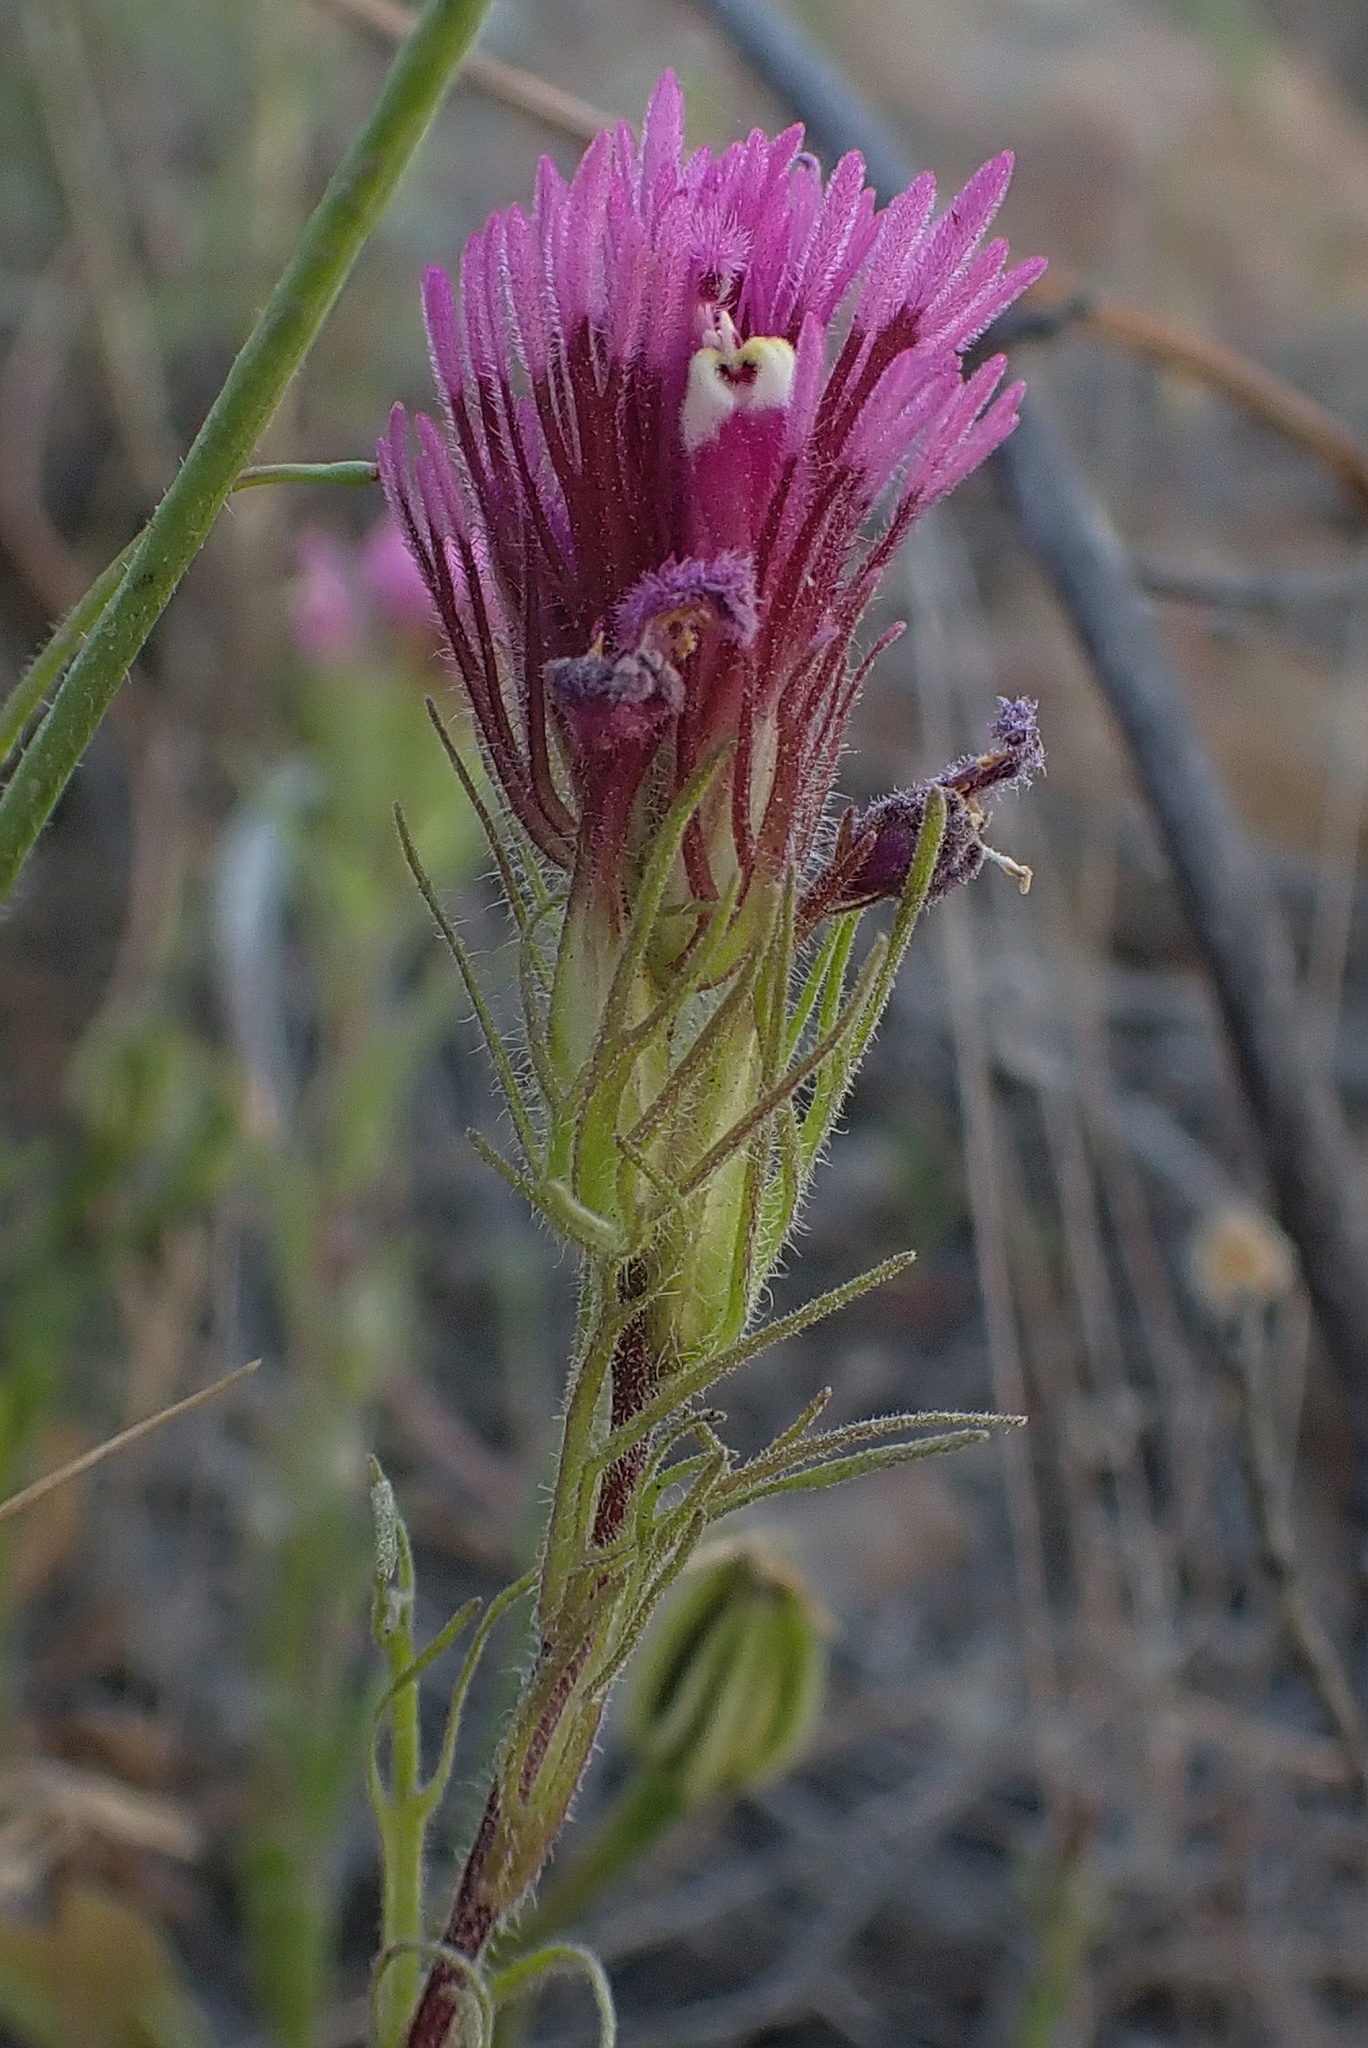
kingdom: Plantae
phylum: Tracheophyta
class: Magnoliopsida
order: Lamiales
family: Orobanchaceae
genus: Castilleja
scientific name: Castilleja exserta
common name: Purple owl-clover
